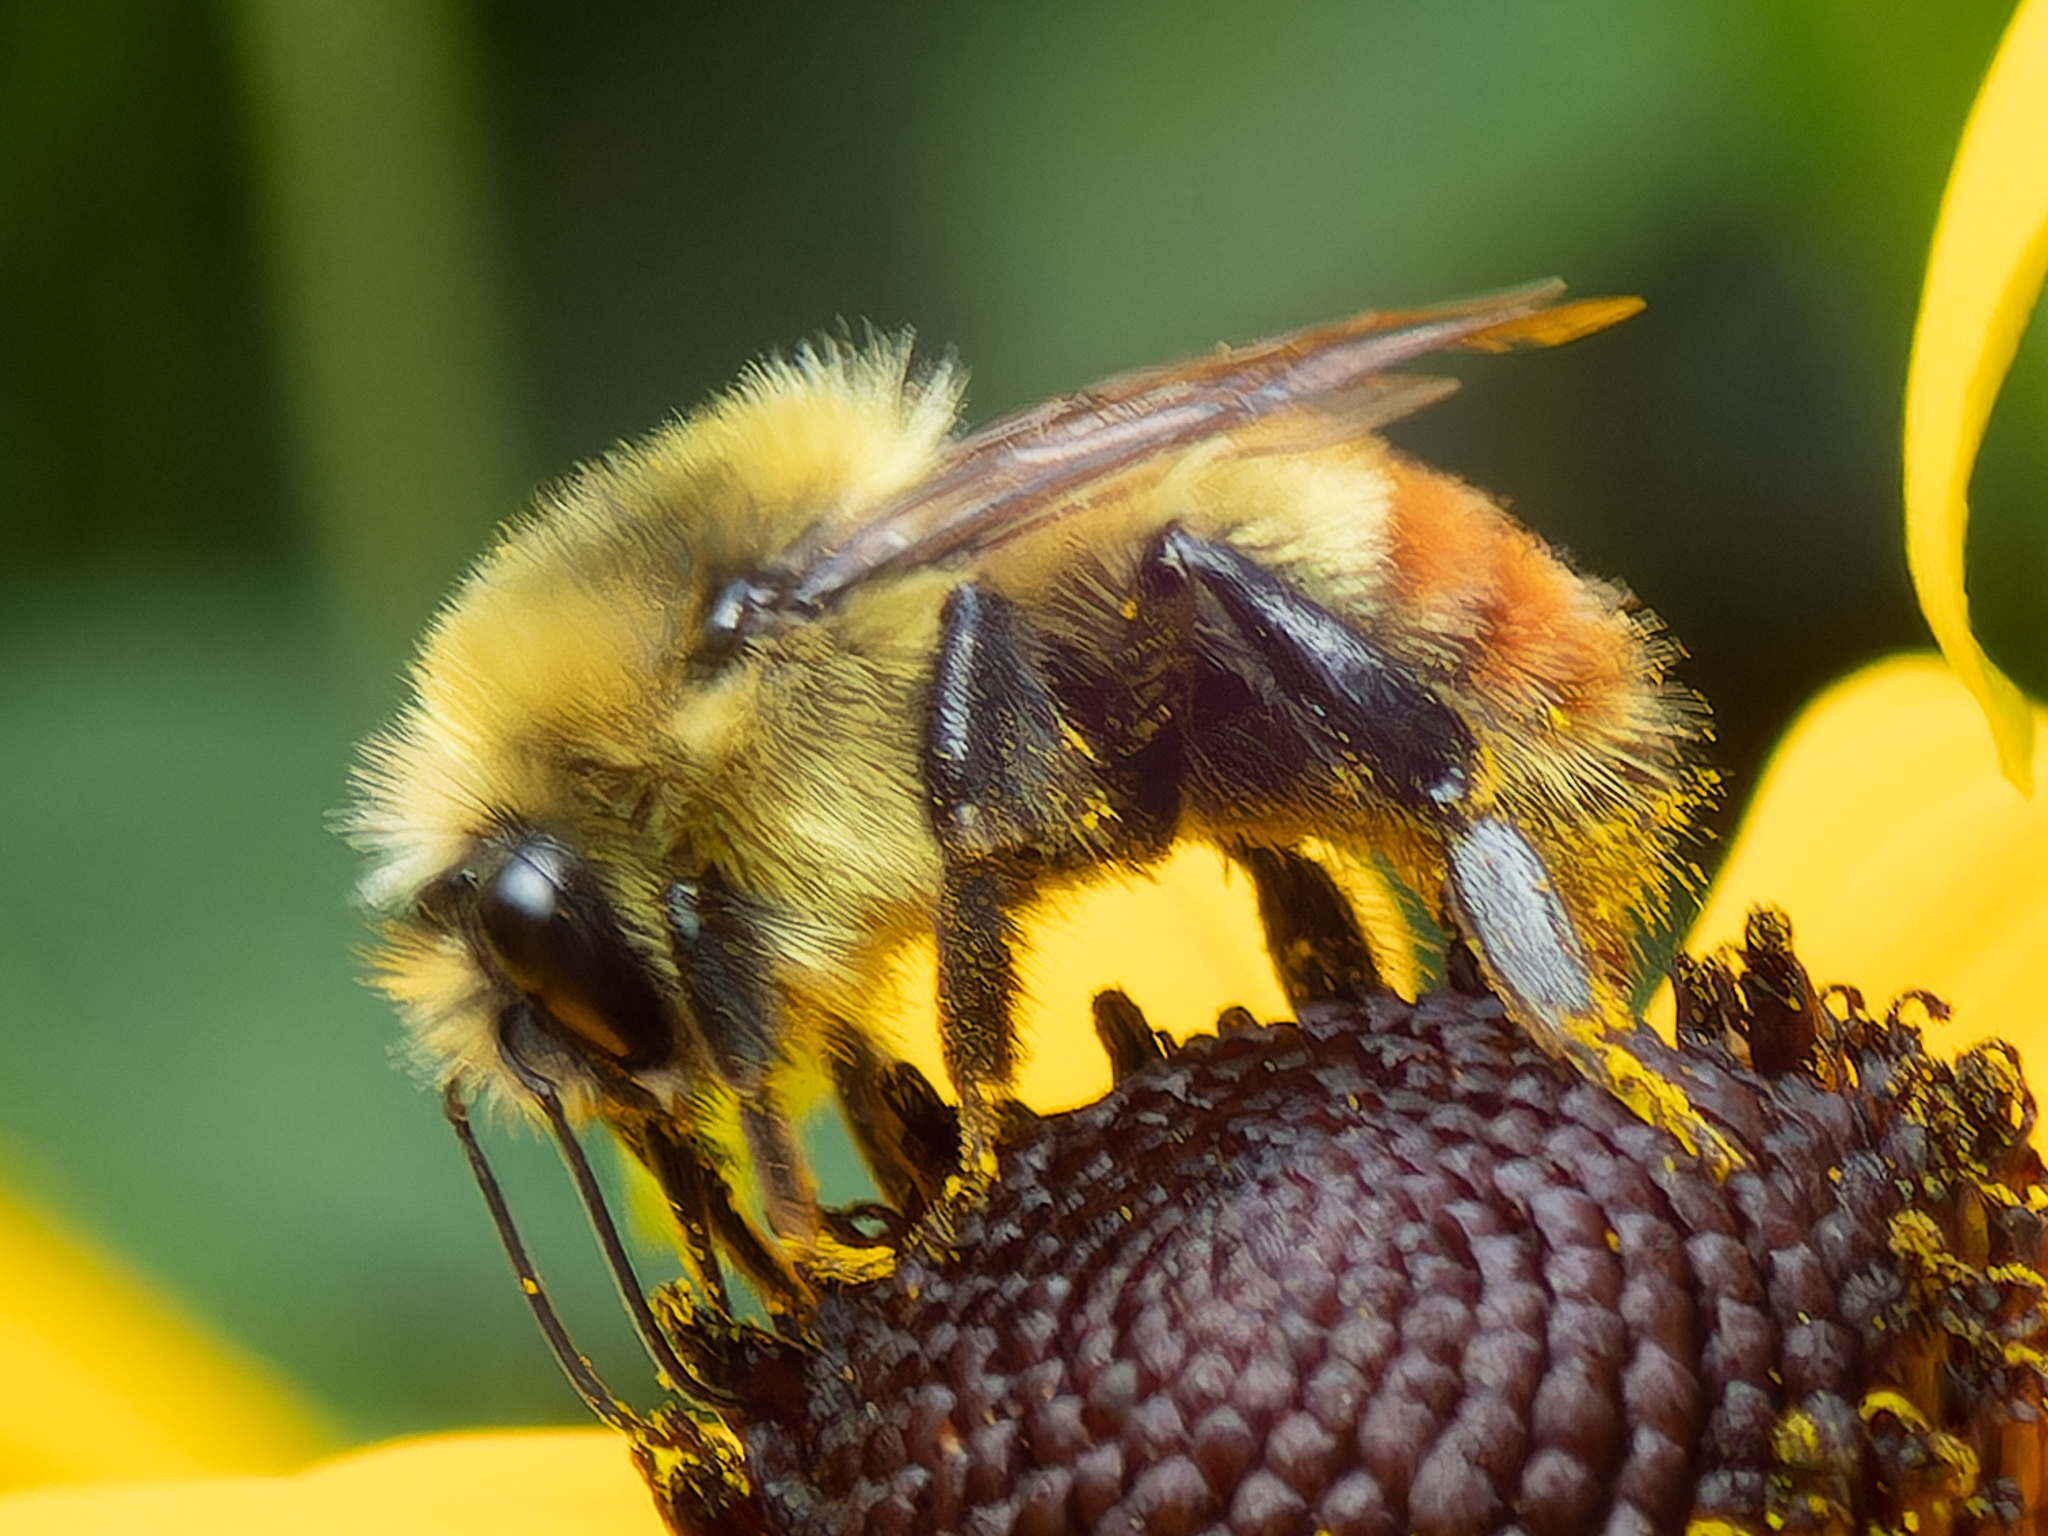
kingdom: Animalia
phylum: Arthropoda
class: Insecta
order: Hymenoptera
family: Apidae
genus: Bombus
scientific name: Bombus rufocinctus
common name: Red-belted bumble bee
